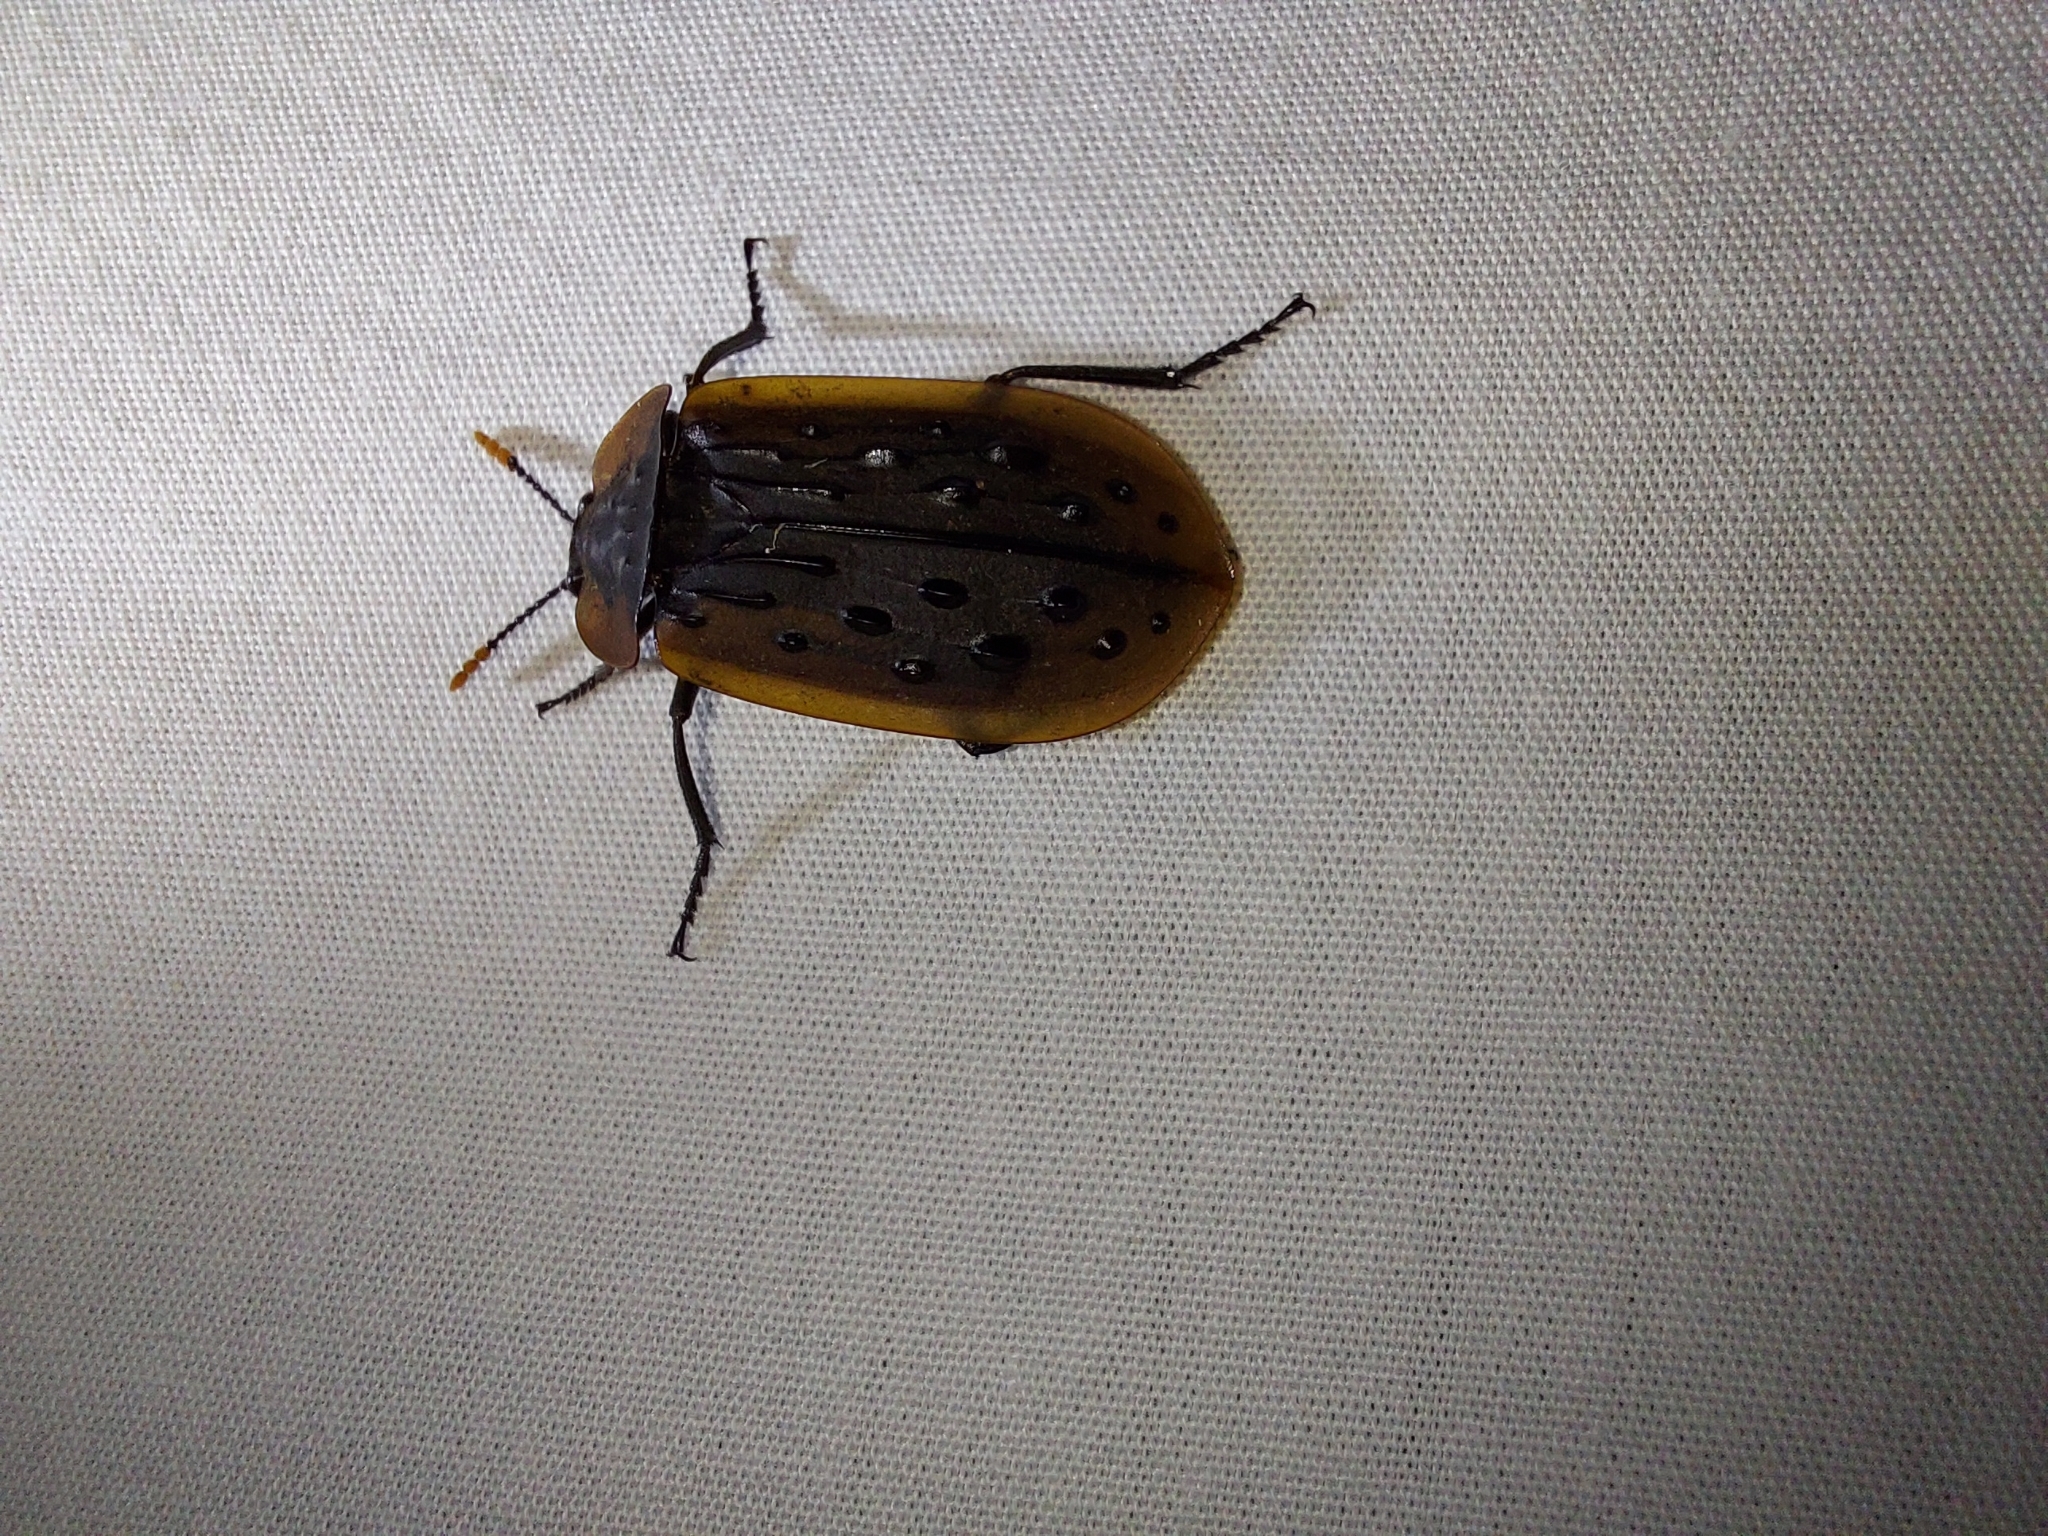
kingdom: Animalia
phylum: Arthropoda
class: Insecta
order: Coleoptera
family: Staphylinidae
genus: Ptomaphila
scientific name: Ptomaphila lacrymosa
